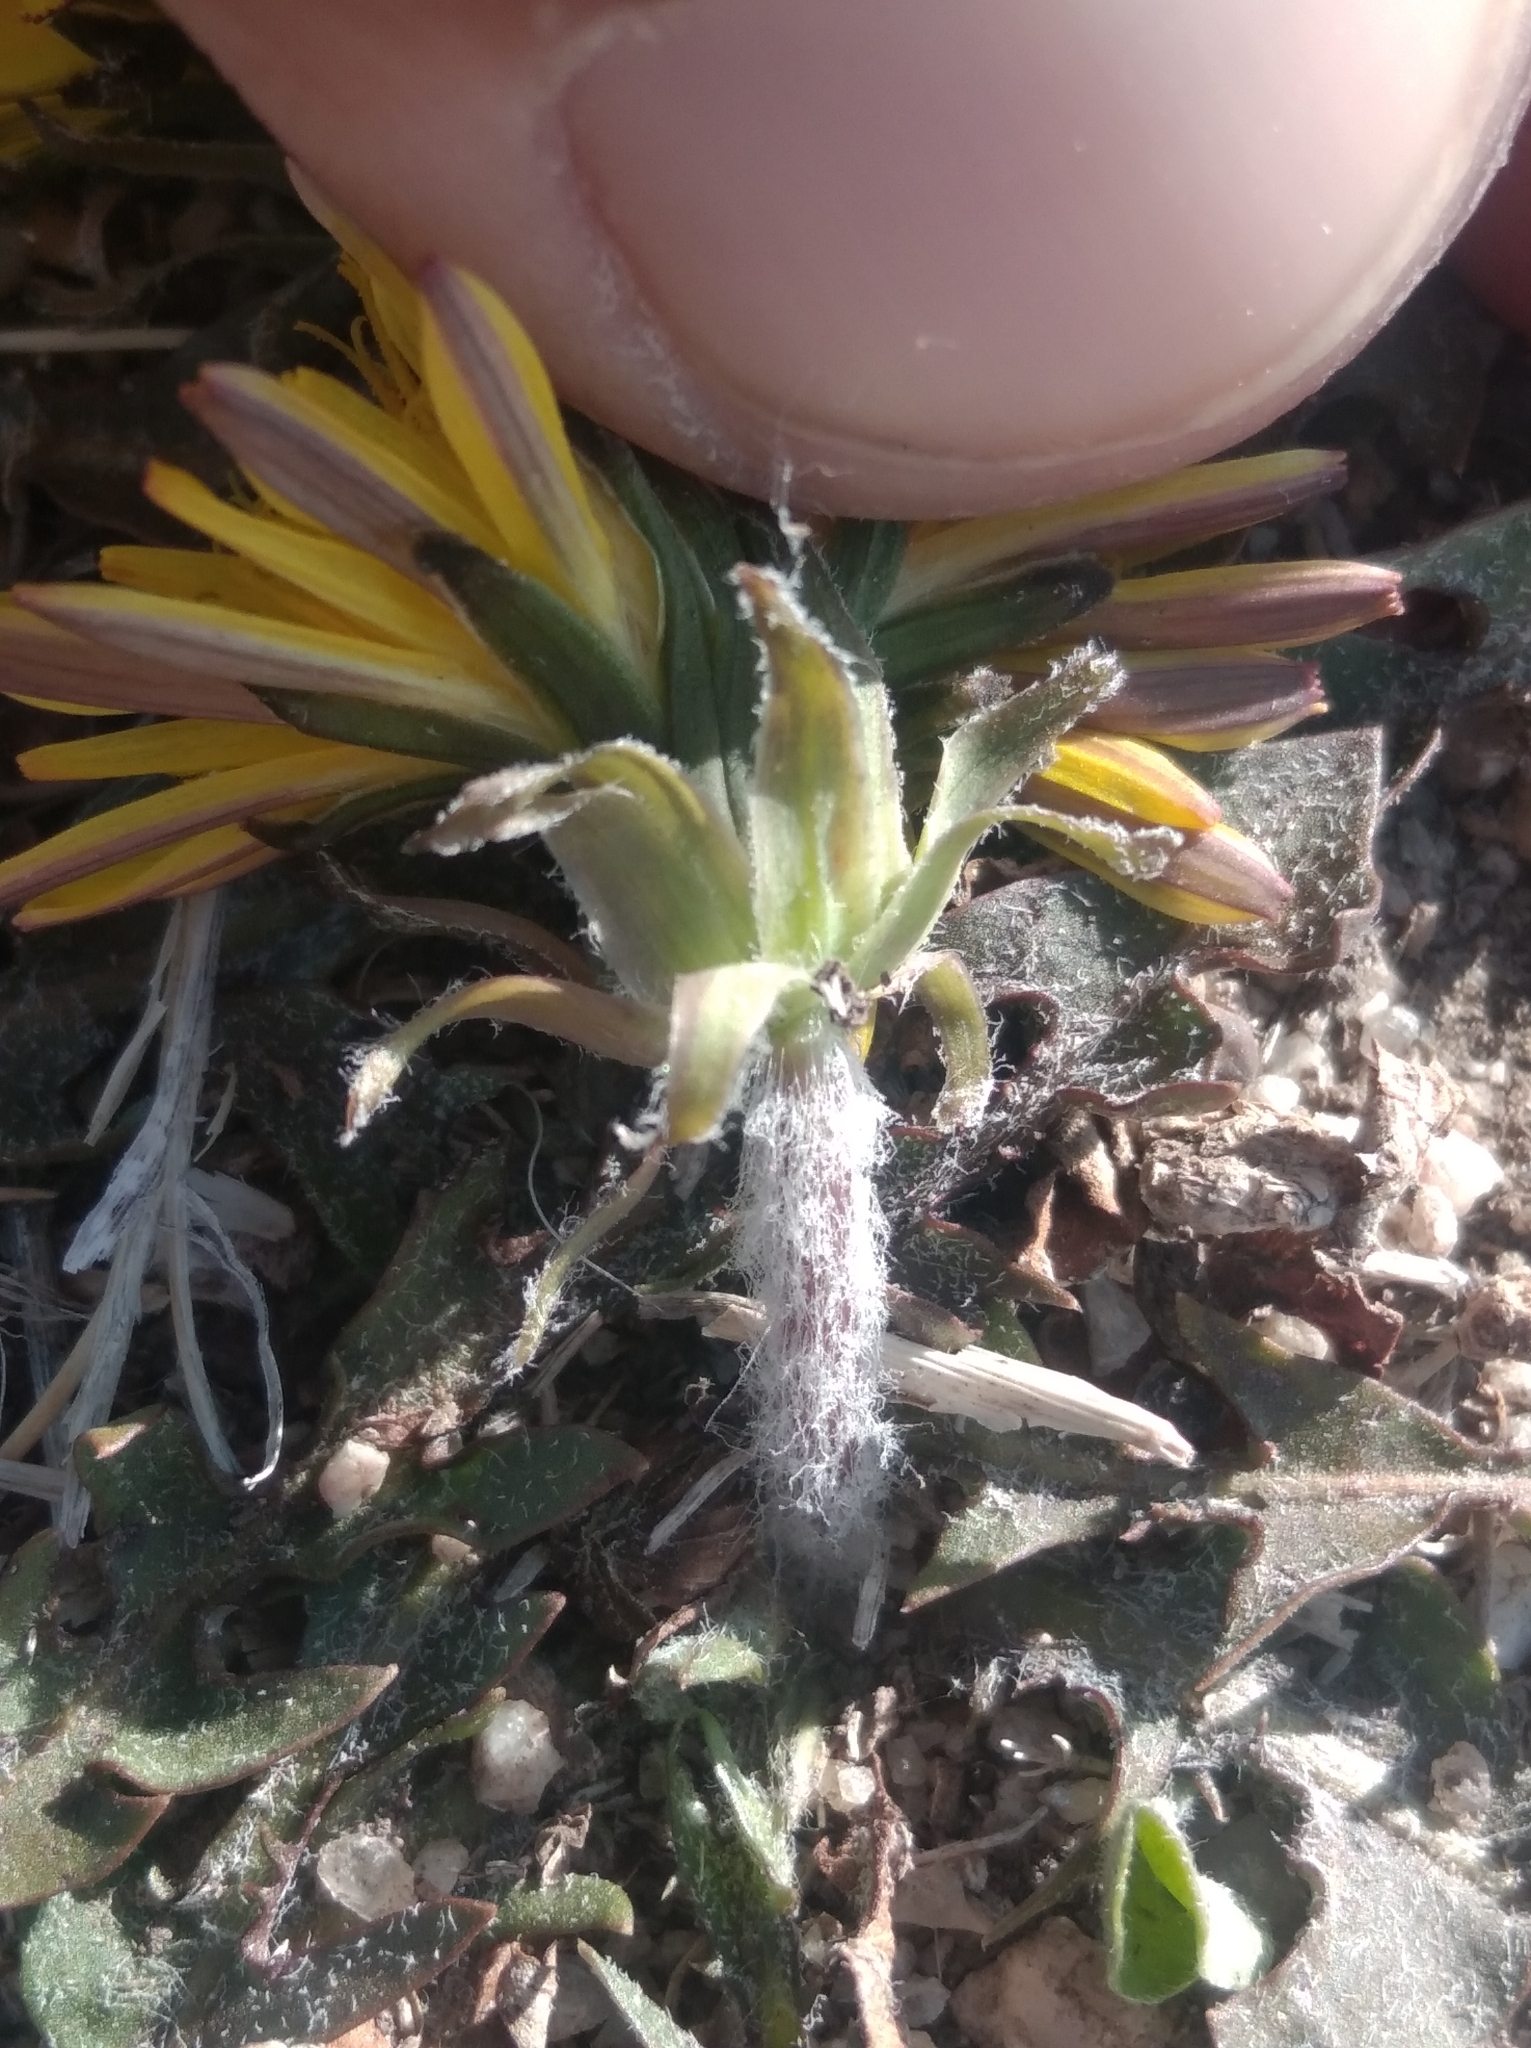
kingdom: Plantae
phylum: Tracheophyta
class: Magnoliopsida
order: Asterales
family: Asteraceae
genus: Taraxacum
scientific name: Taraxacum officinale
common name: Common dandelion
